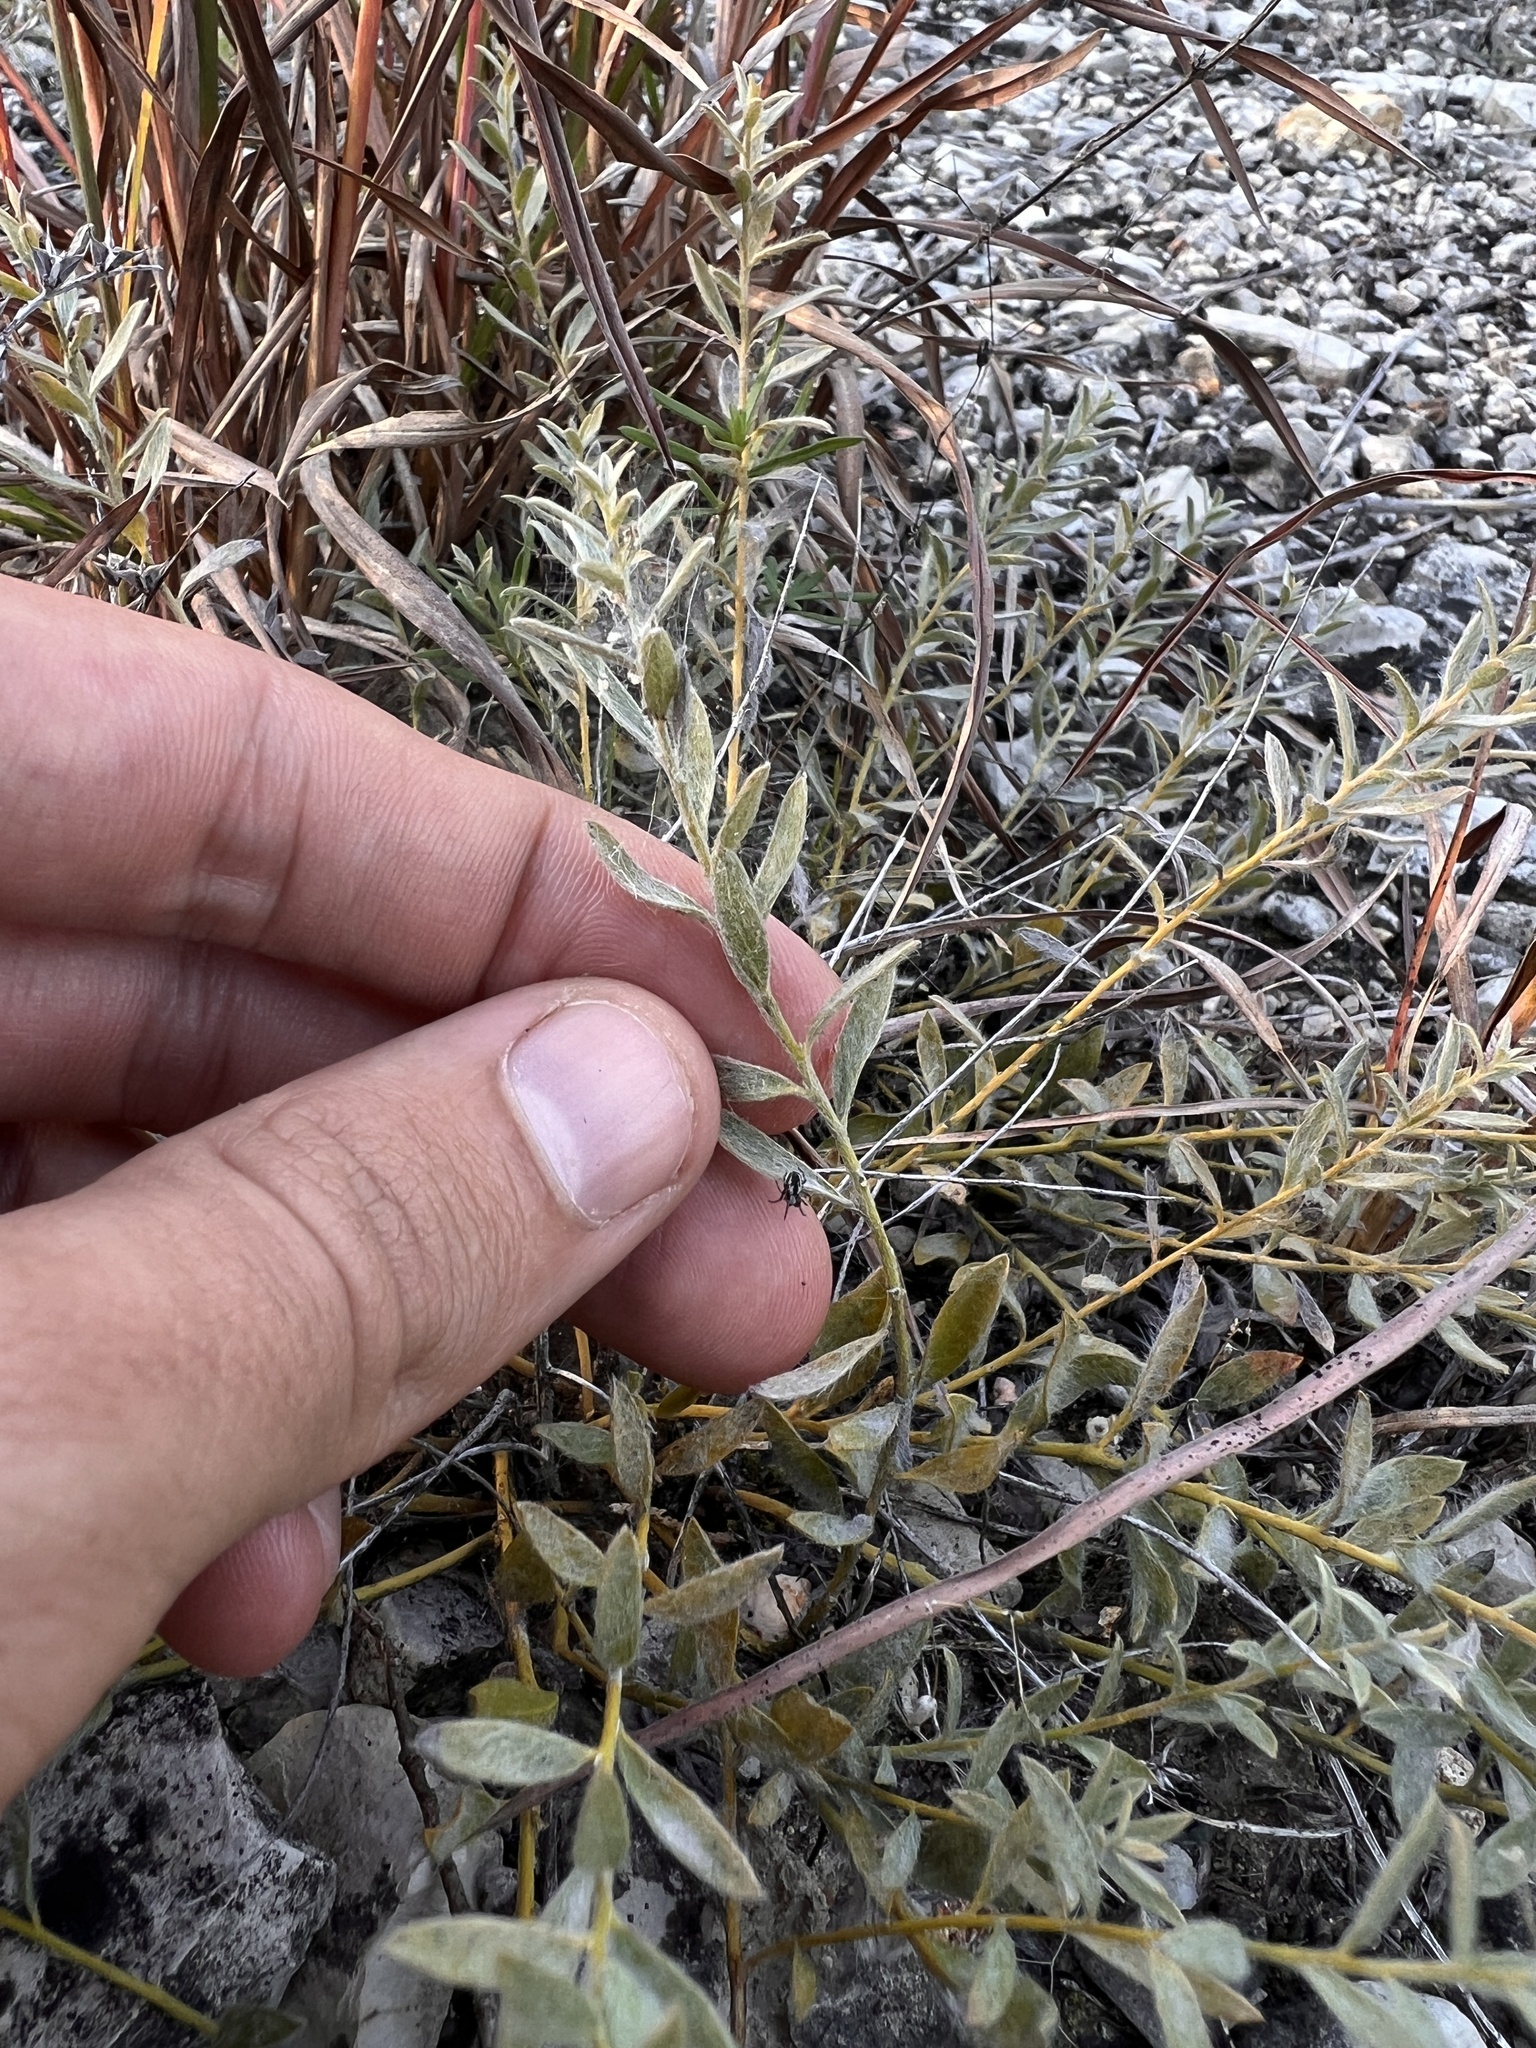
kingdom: Plantae
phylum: Tracheophyta
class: Magnoliopsida
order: Solanales
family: Convolvulaceae
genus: Evolvulus
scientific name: Evolvulus nuttallianus
